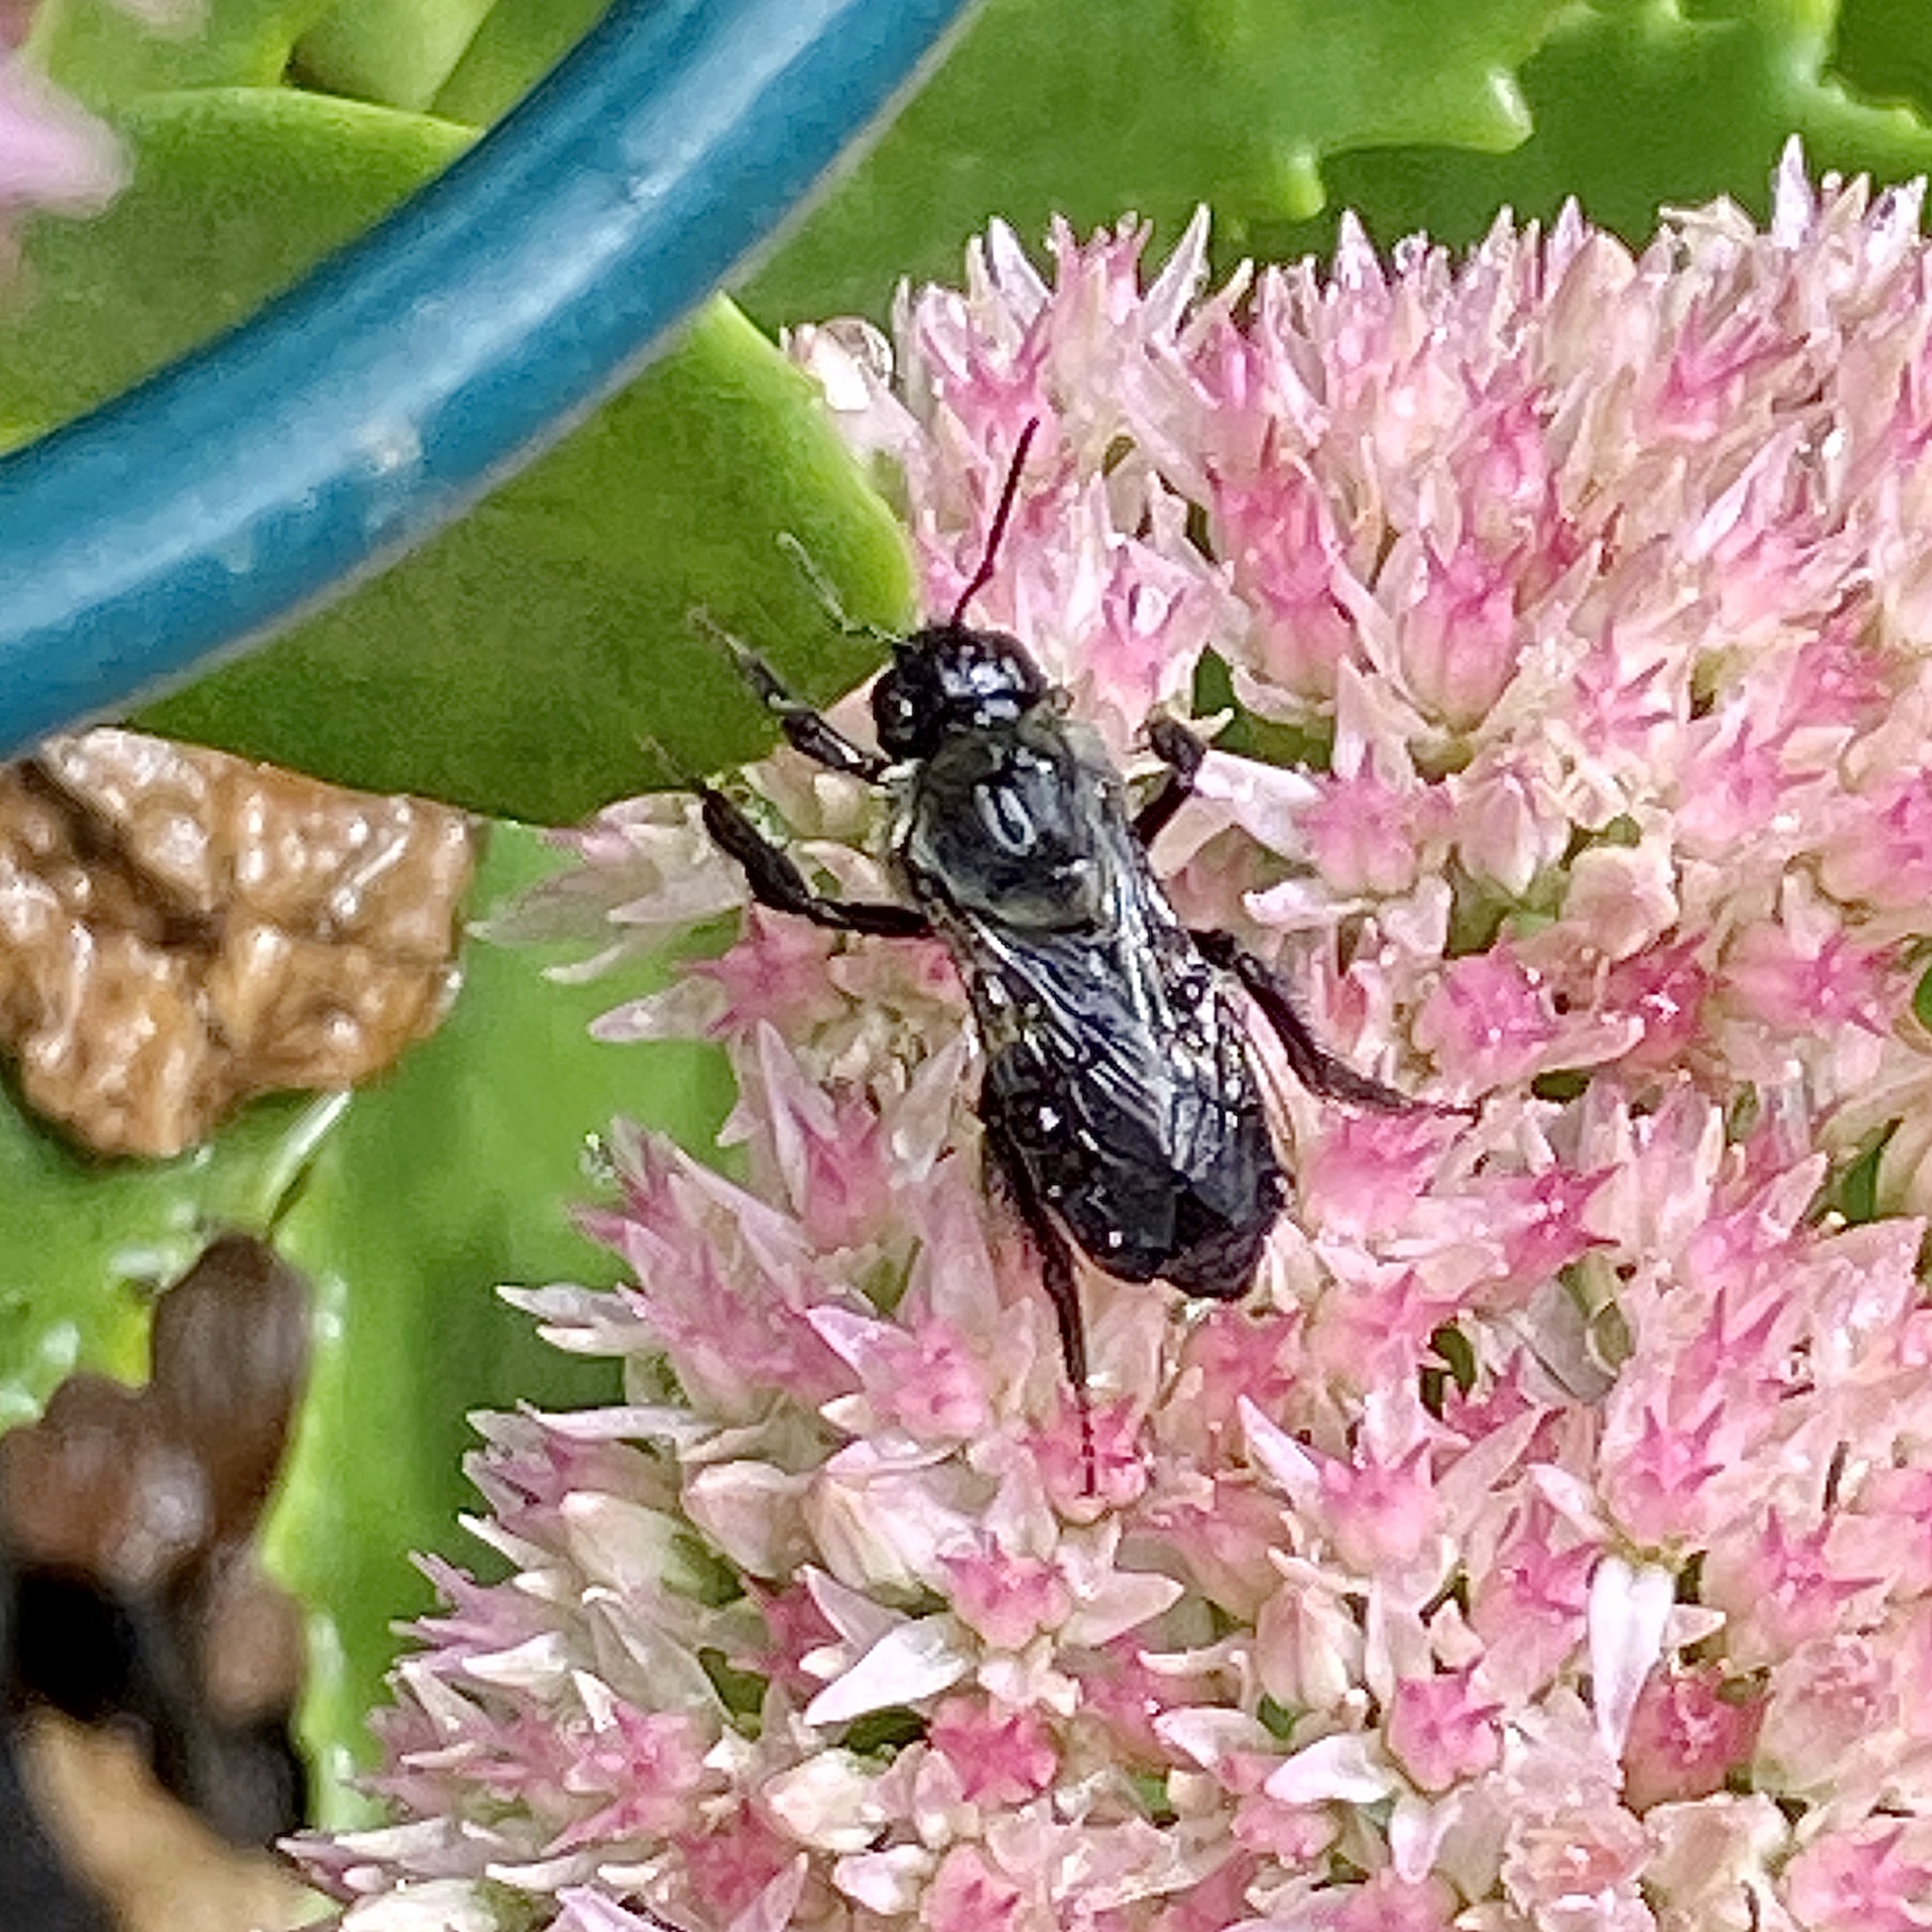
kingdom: Animalia
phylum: Arthropoda
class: Insecta
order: Hymenoptera
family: Apidae
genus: Bombus
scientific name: Bombus impatiens
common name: Common eastern bumble bee
